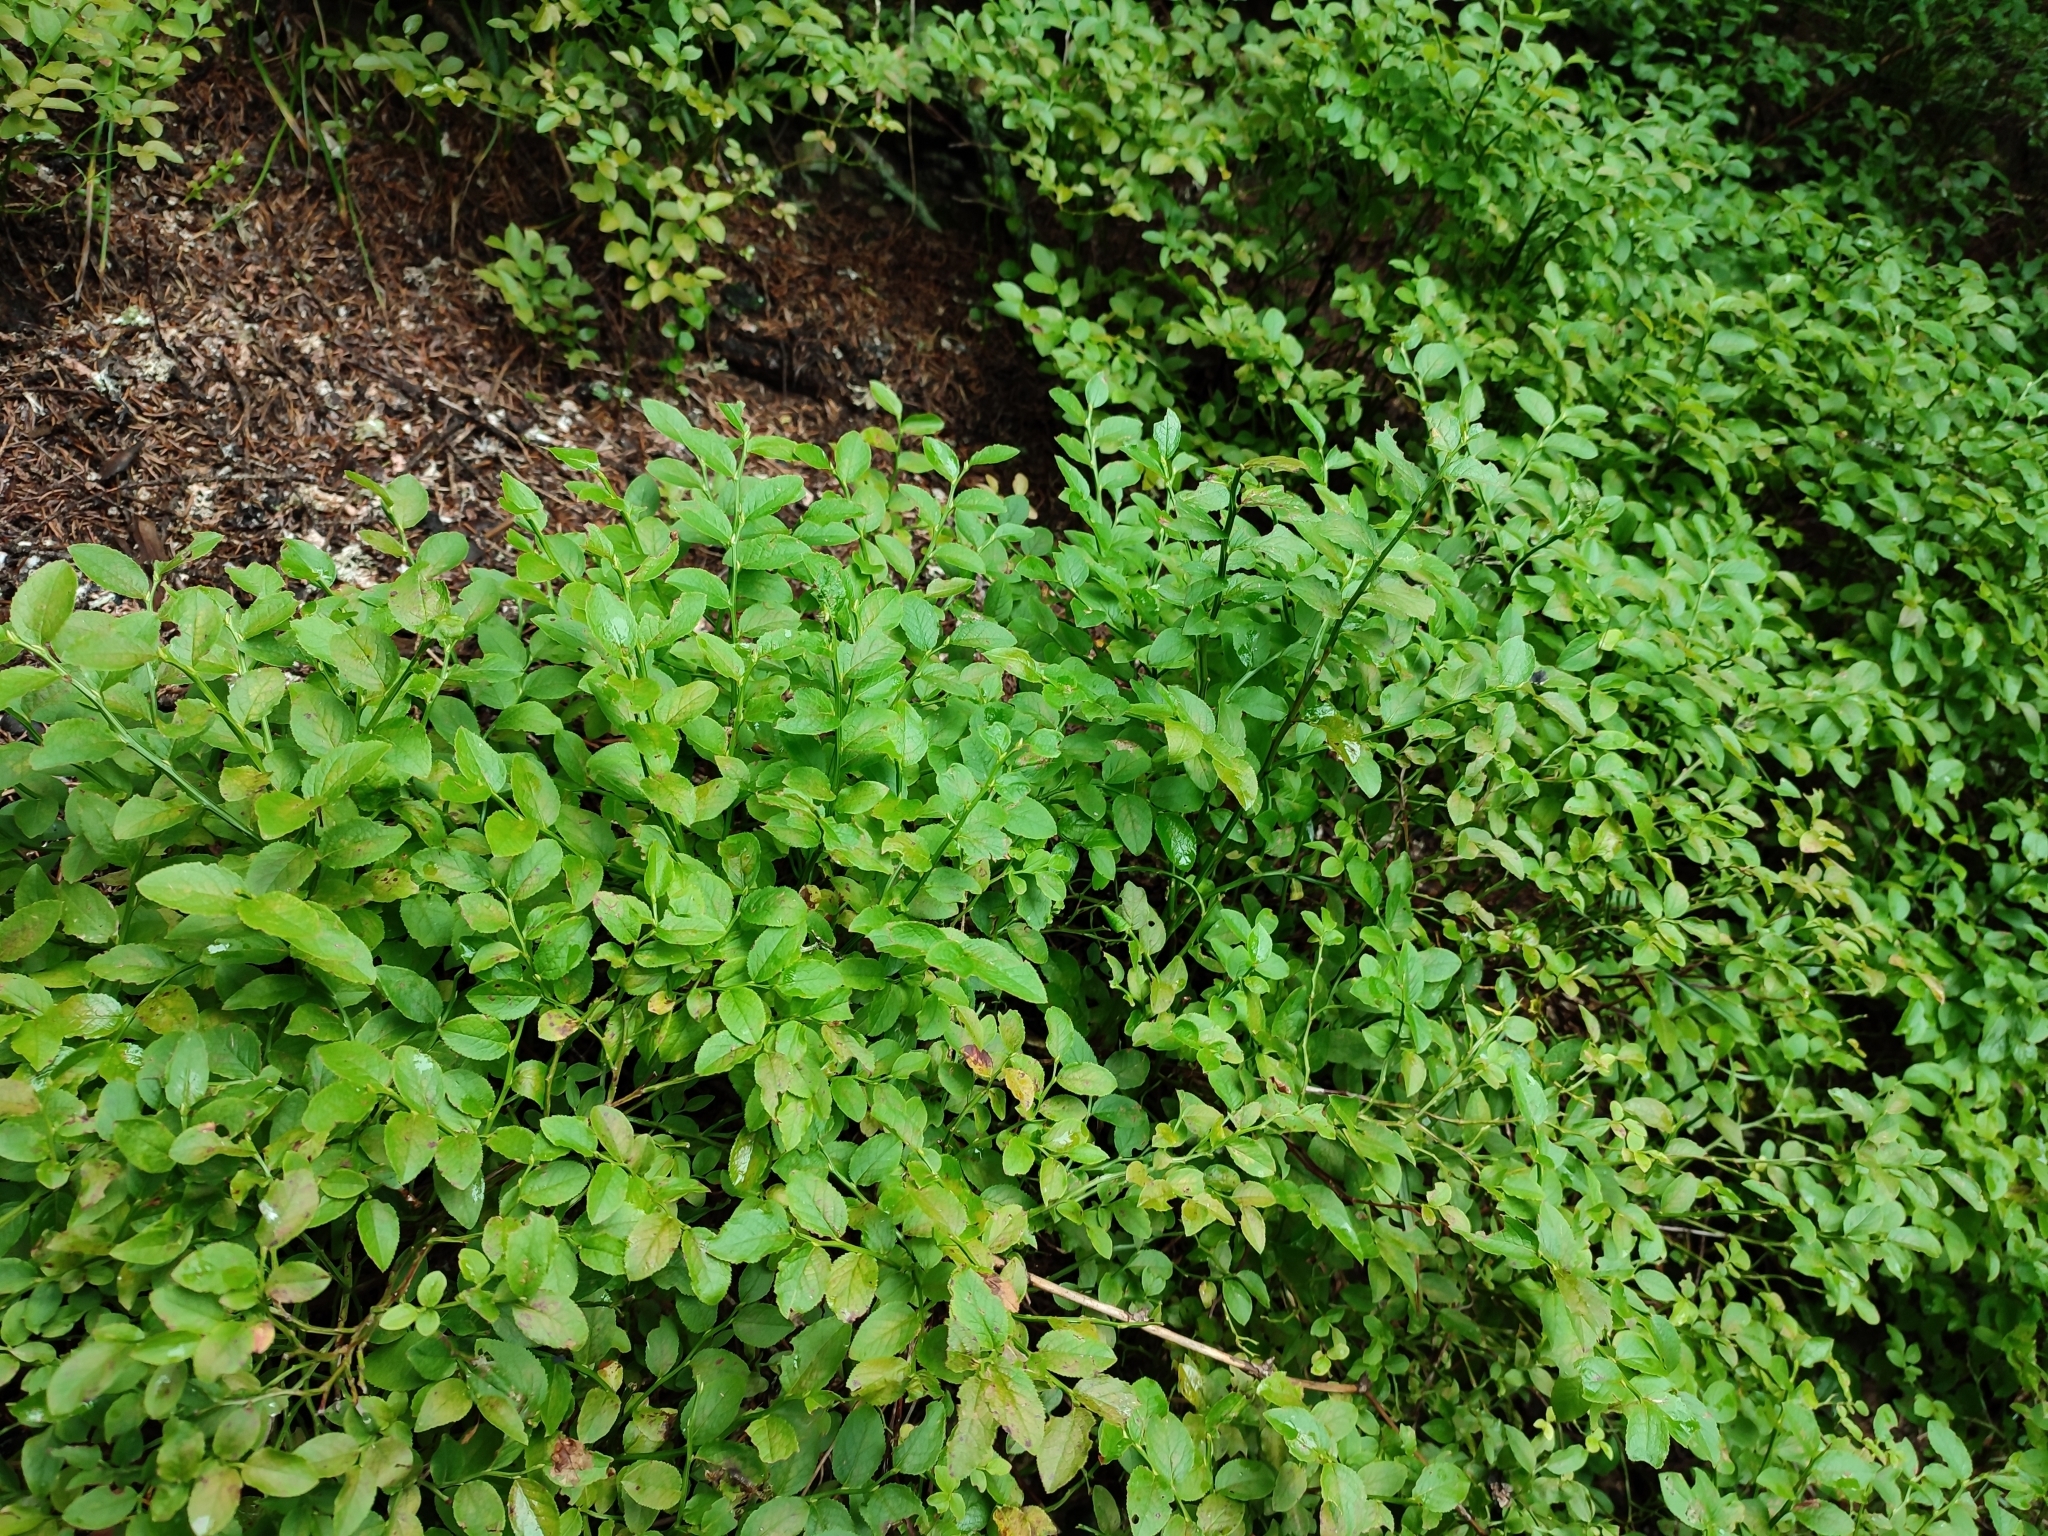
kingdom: Plantae
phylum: Tracheophyta
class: Magnoliopsida
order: Ericales
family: Ericaceae
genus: Vaccinium
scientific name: Vaccinium myrtillus
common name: Bilberry
